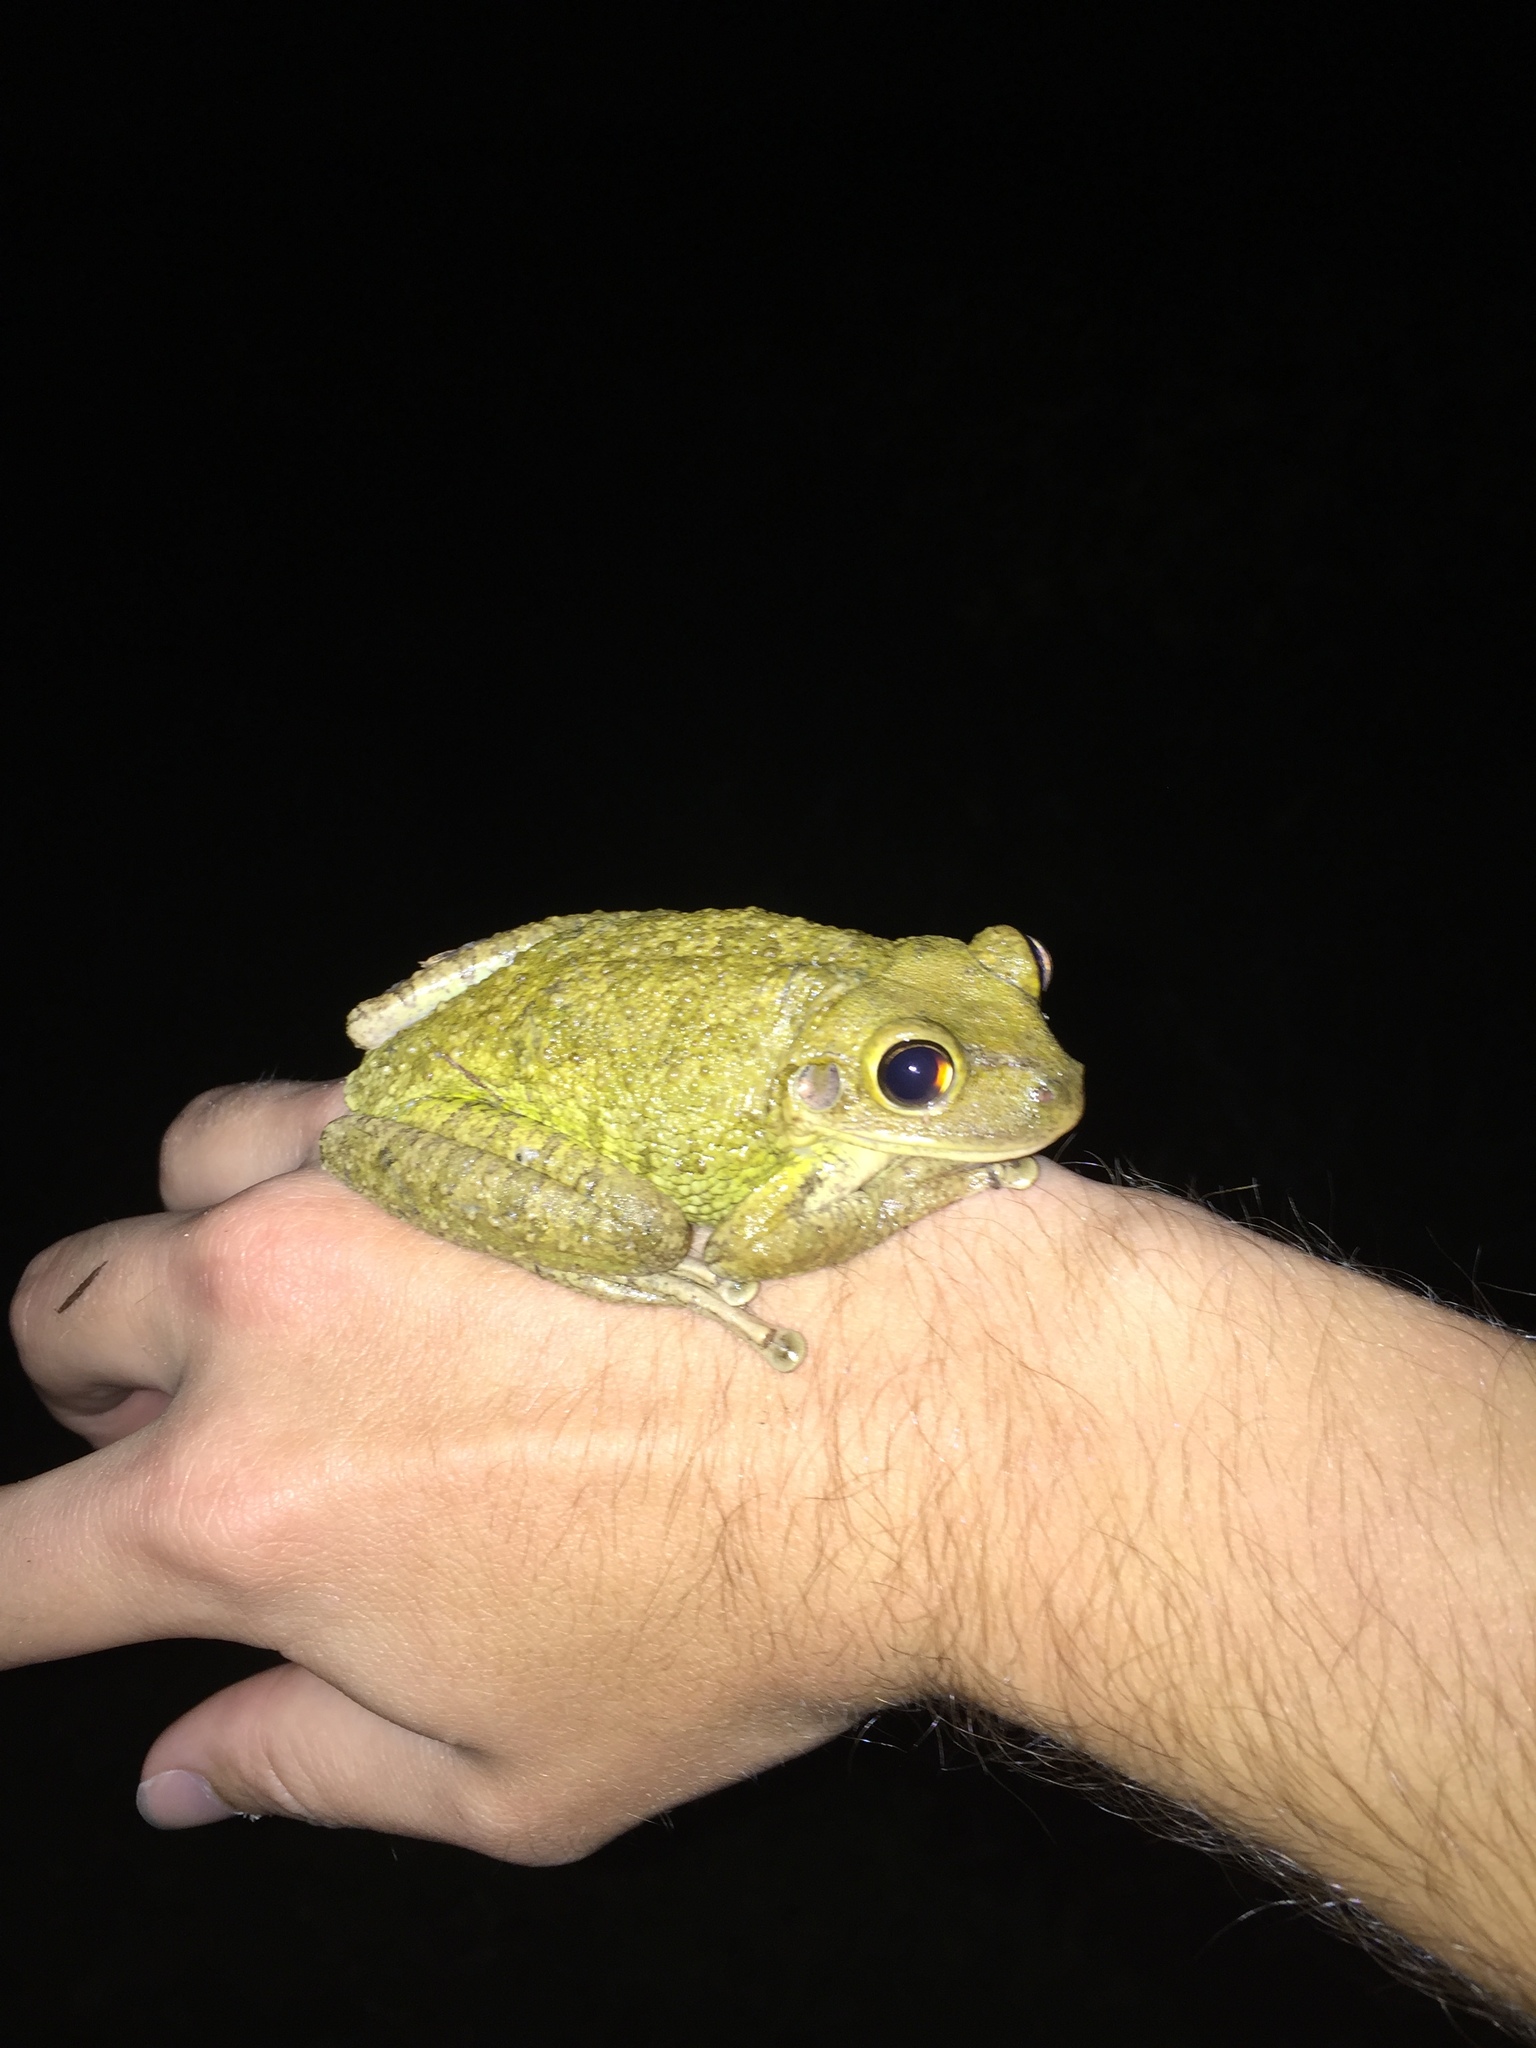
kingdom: Animalia
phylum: Chordata
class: Amphibia
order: Anura
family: Hylidae
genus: Osteopilus
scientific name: Osteopilus septentrionalis
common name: Cuban treefrog
